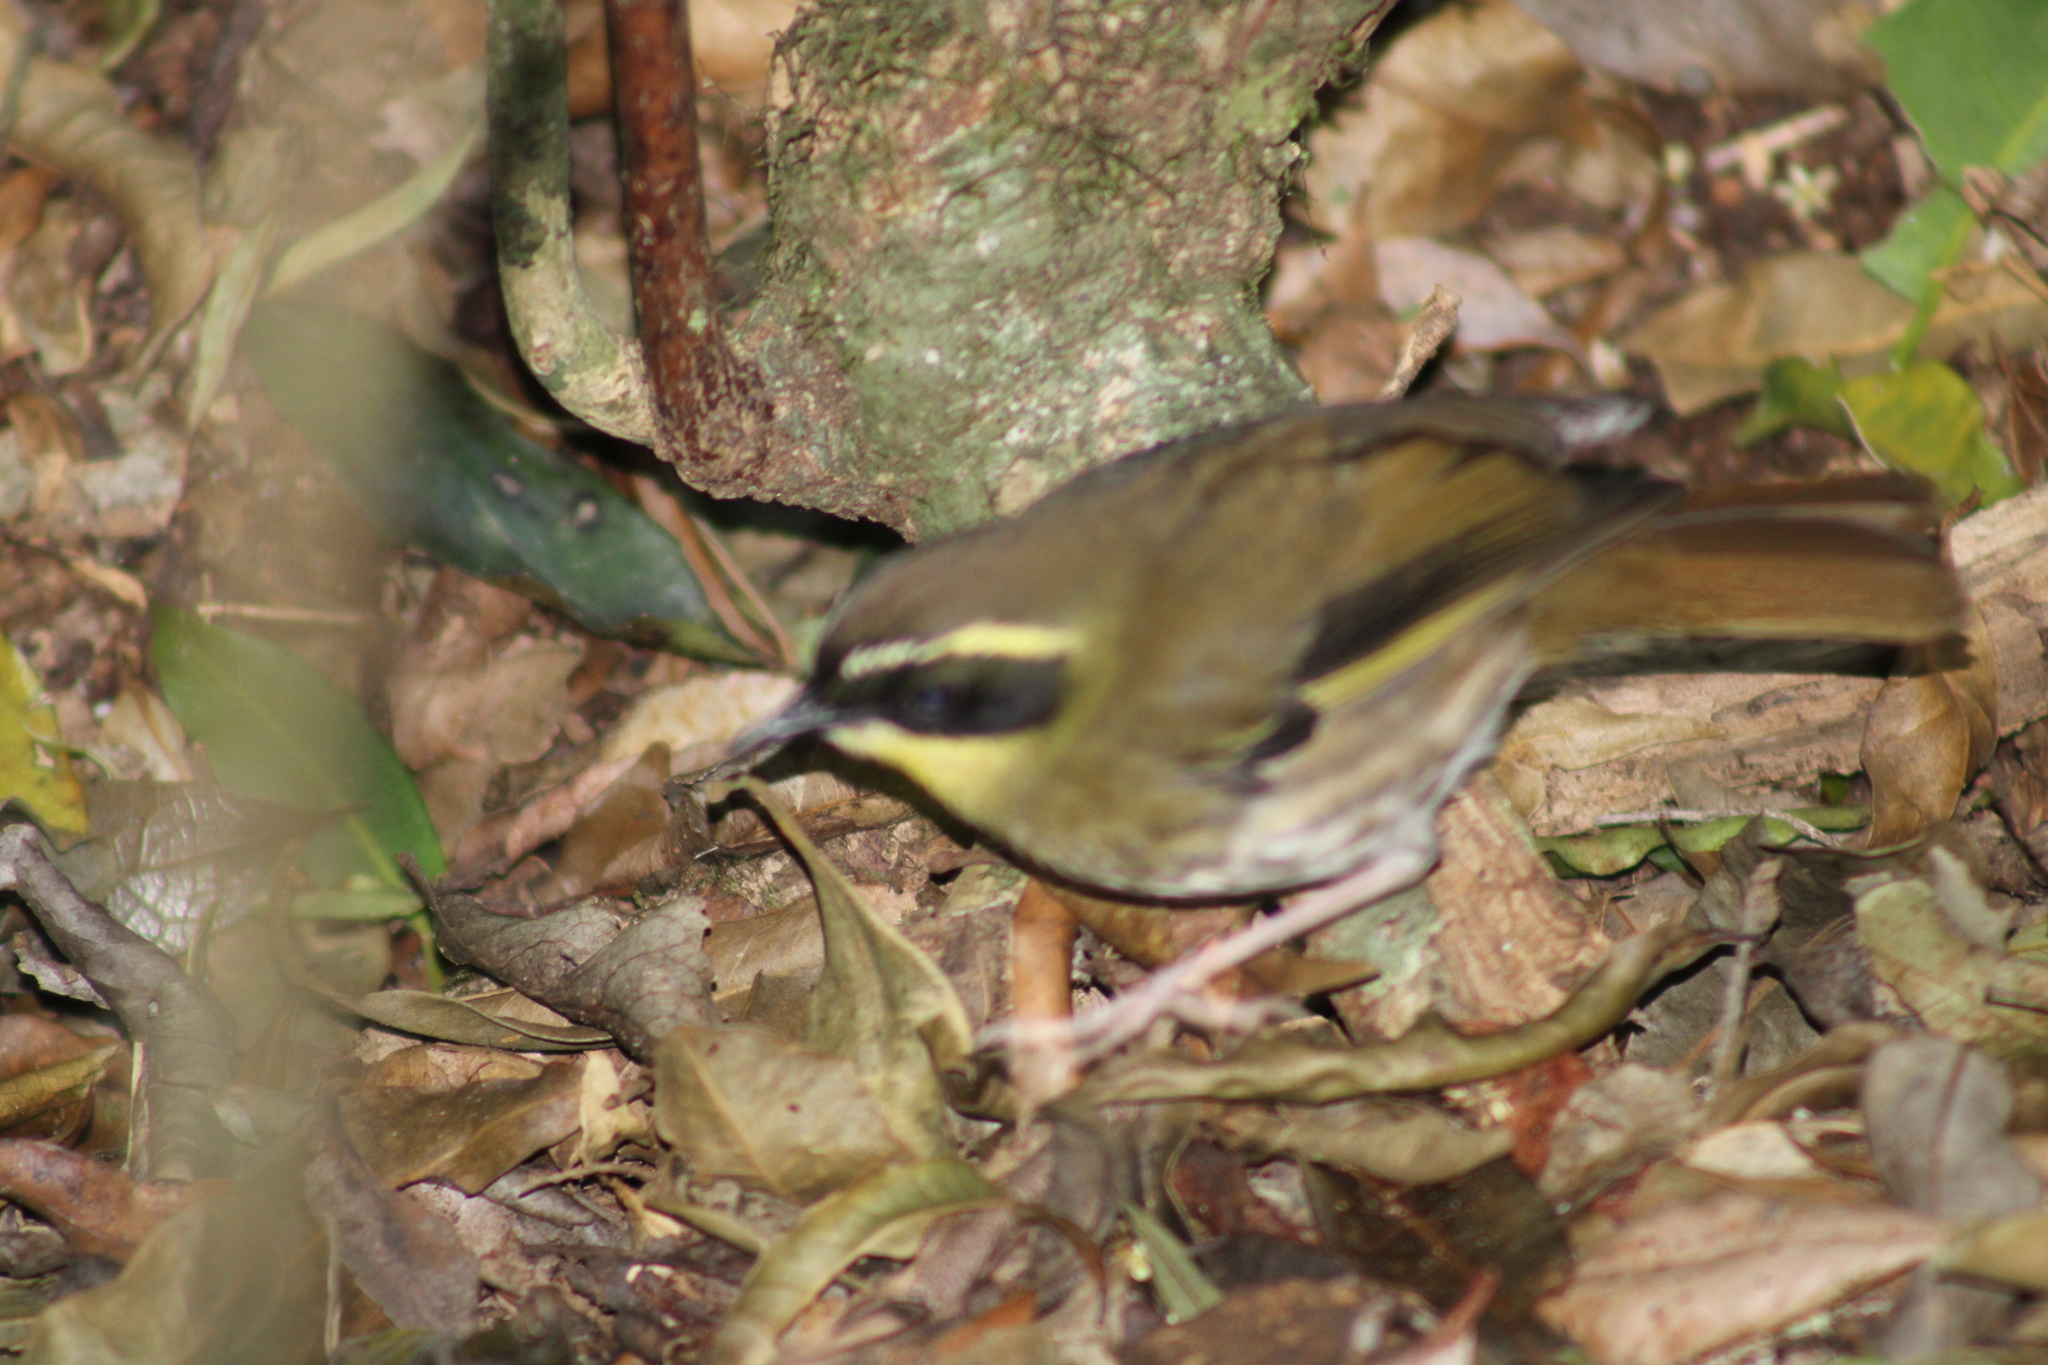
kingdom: Animalia
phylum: Chordata
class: Aves
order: Passeriformes
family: Acanthizidae
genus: Sericornis
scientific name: Sericornis citreogularis
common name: Yellow-throated scrubwren
